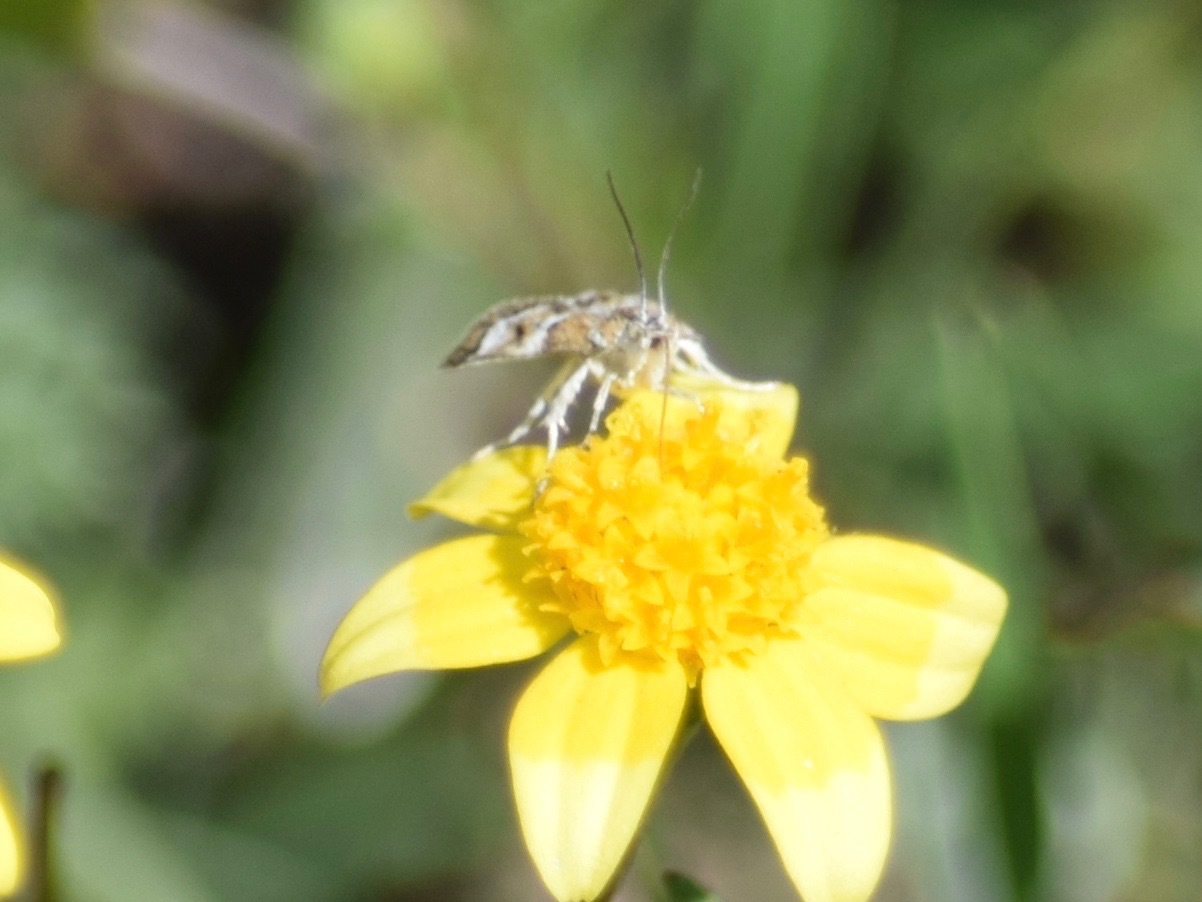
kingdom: Animalia
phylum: Arthropoda
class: Insecta
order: Lepidoptera
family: Crambidae
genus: Nannobotys
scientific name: Nannobotys commortalis
